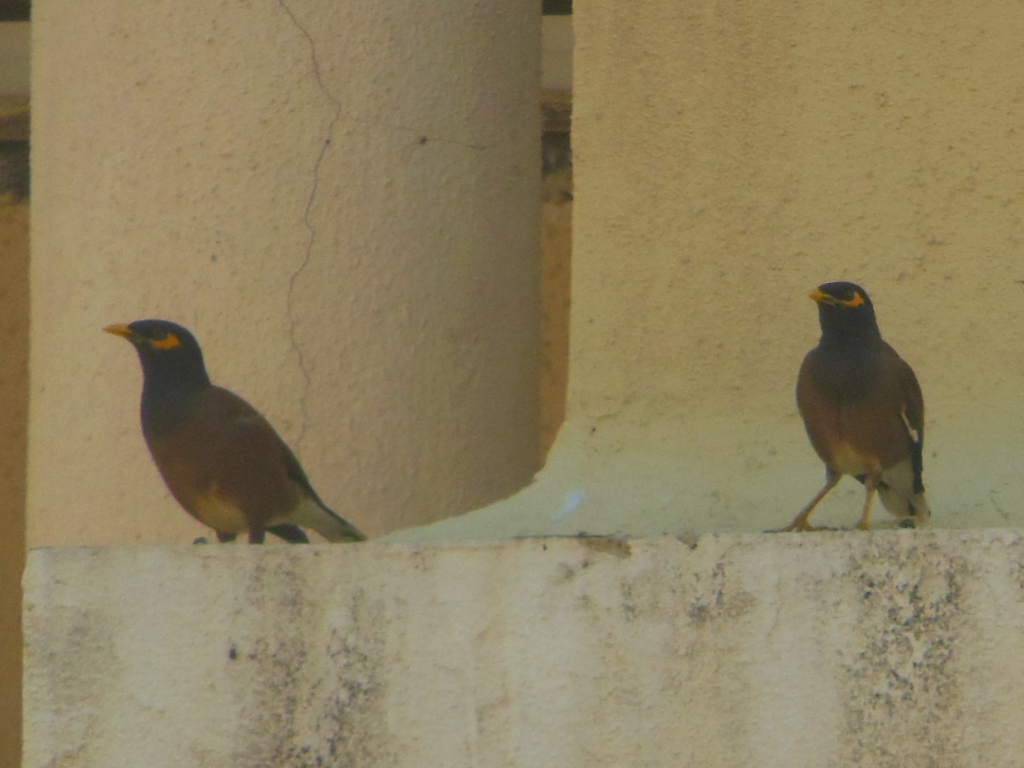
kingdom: Animalia
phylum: Chordata
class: Aves
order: Passeriformes
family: Sturnidae
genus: Acridotheres
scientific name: Acridotheres tristis
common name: Common myna
